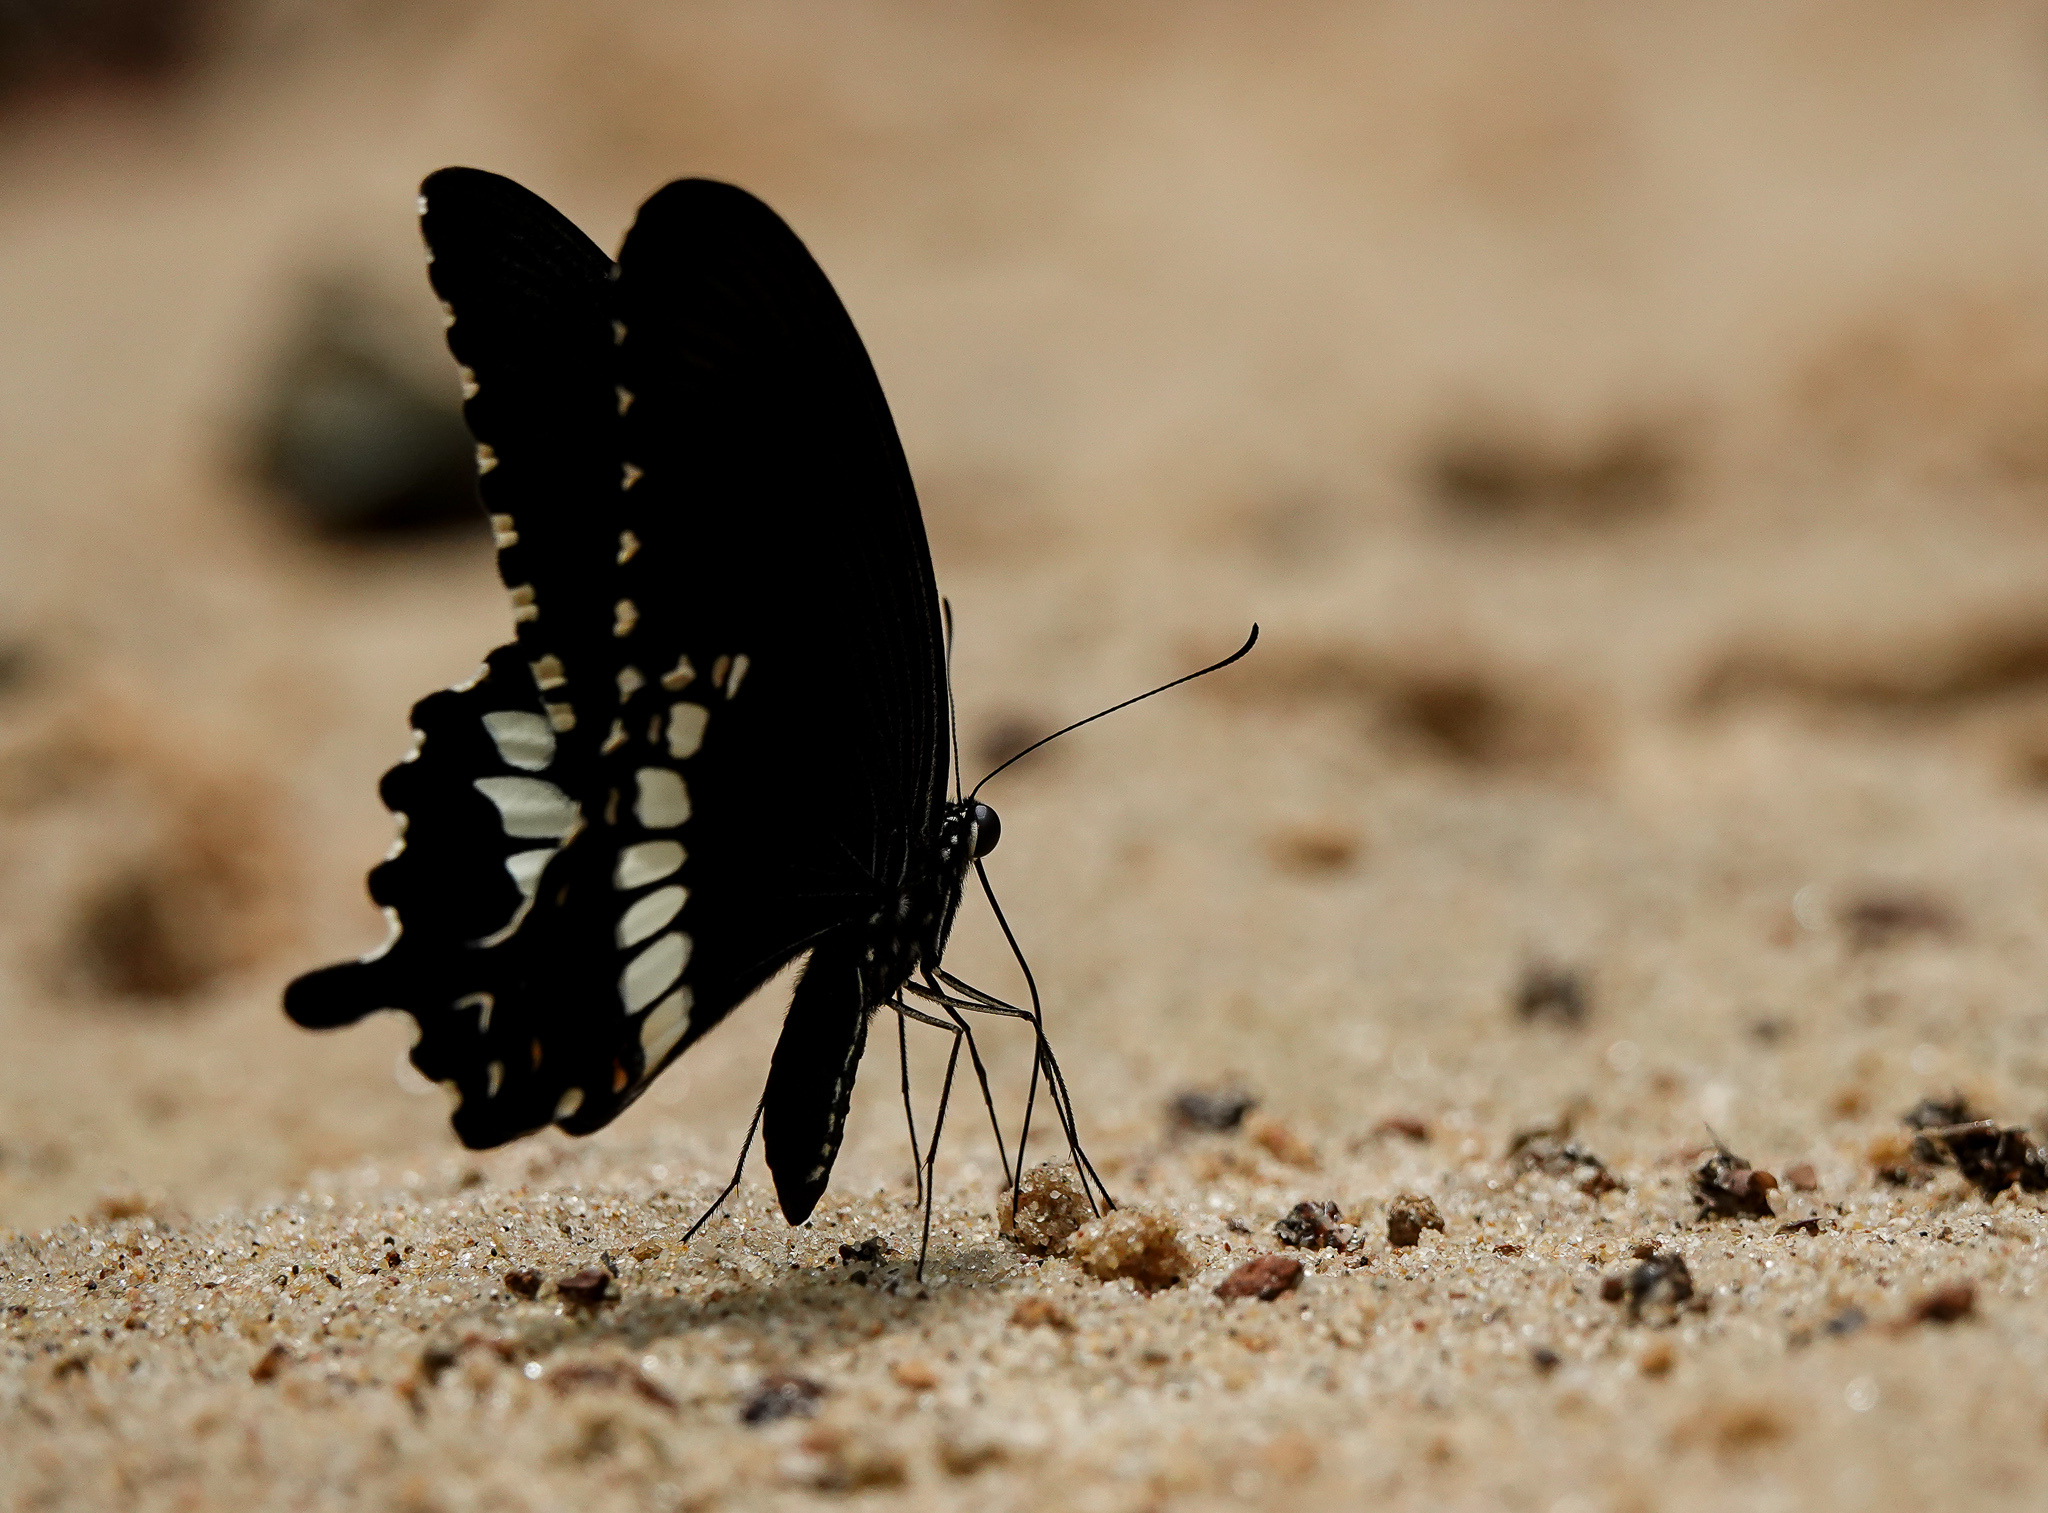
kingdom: Animalia
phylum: Arthropoda
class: Insecta
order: Lepidoptera
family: Papilionidae
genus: Papilio
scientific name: Papilio polytes
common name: Common mormon
